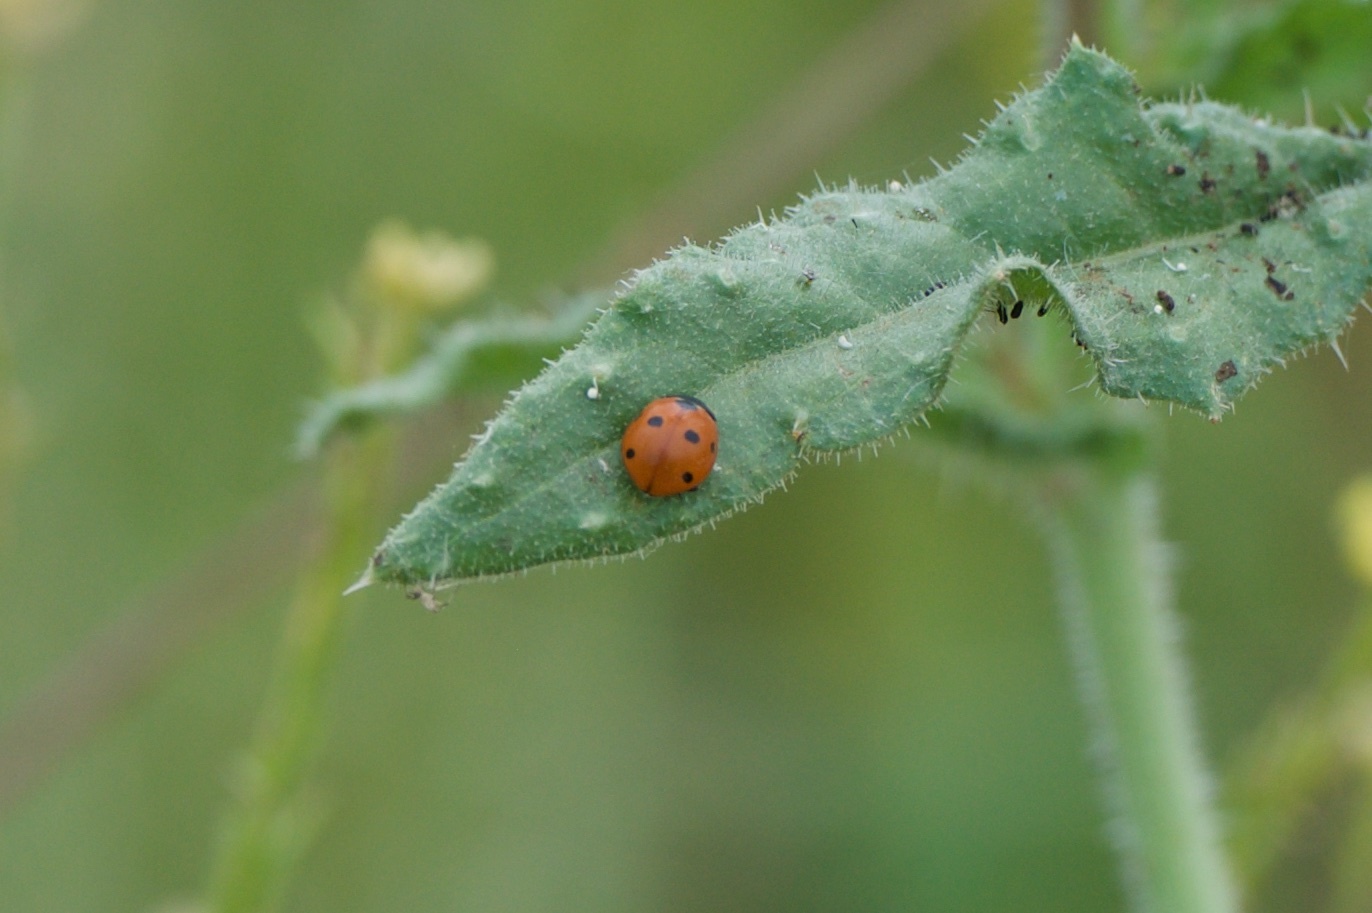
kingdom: Animalia
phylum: Arthropoda
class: Insecta
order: Coleoptera
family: Coccinellidae
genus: Coccinella
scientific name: Coccinella septempunctata
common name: Sevenspotted lady beetle
